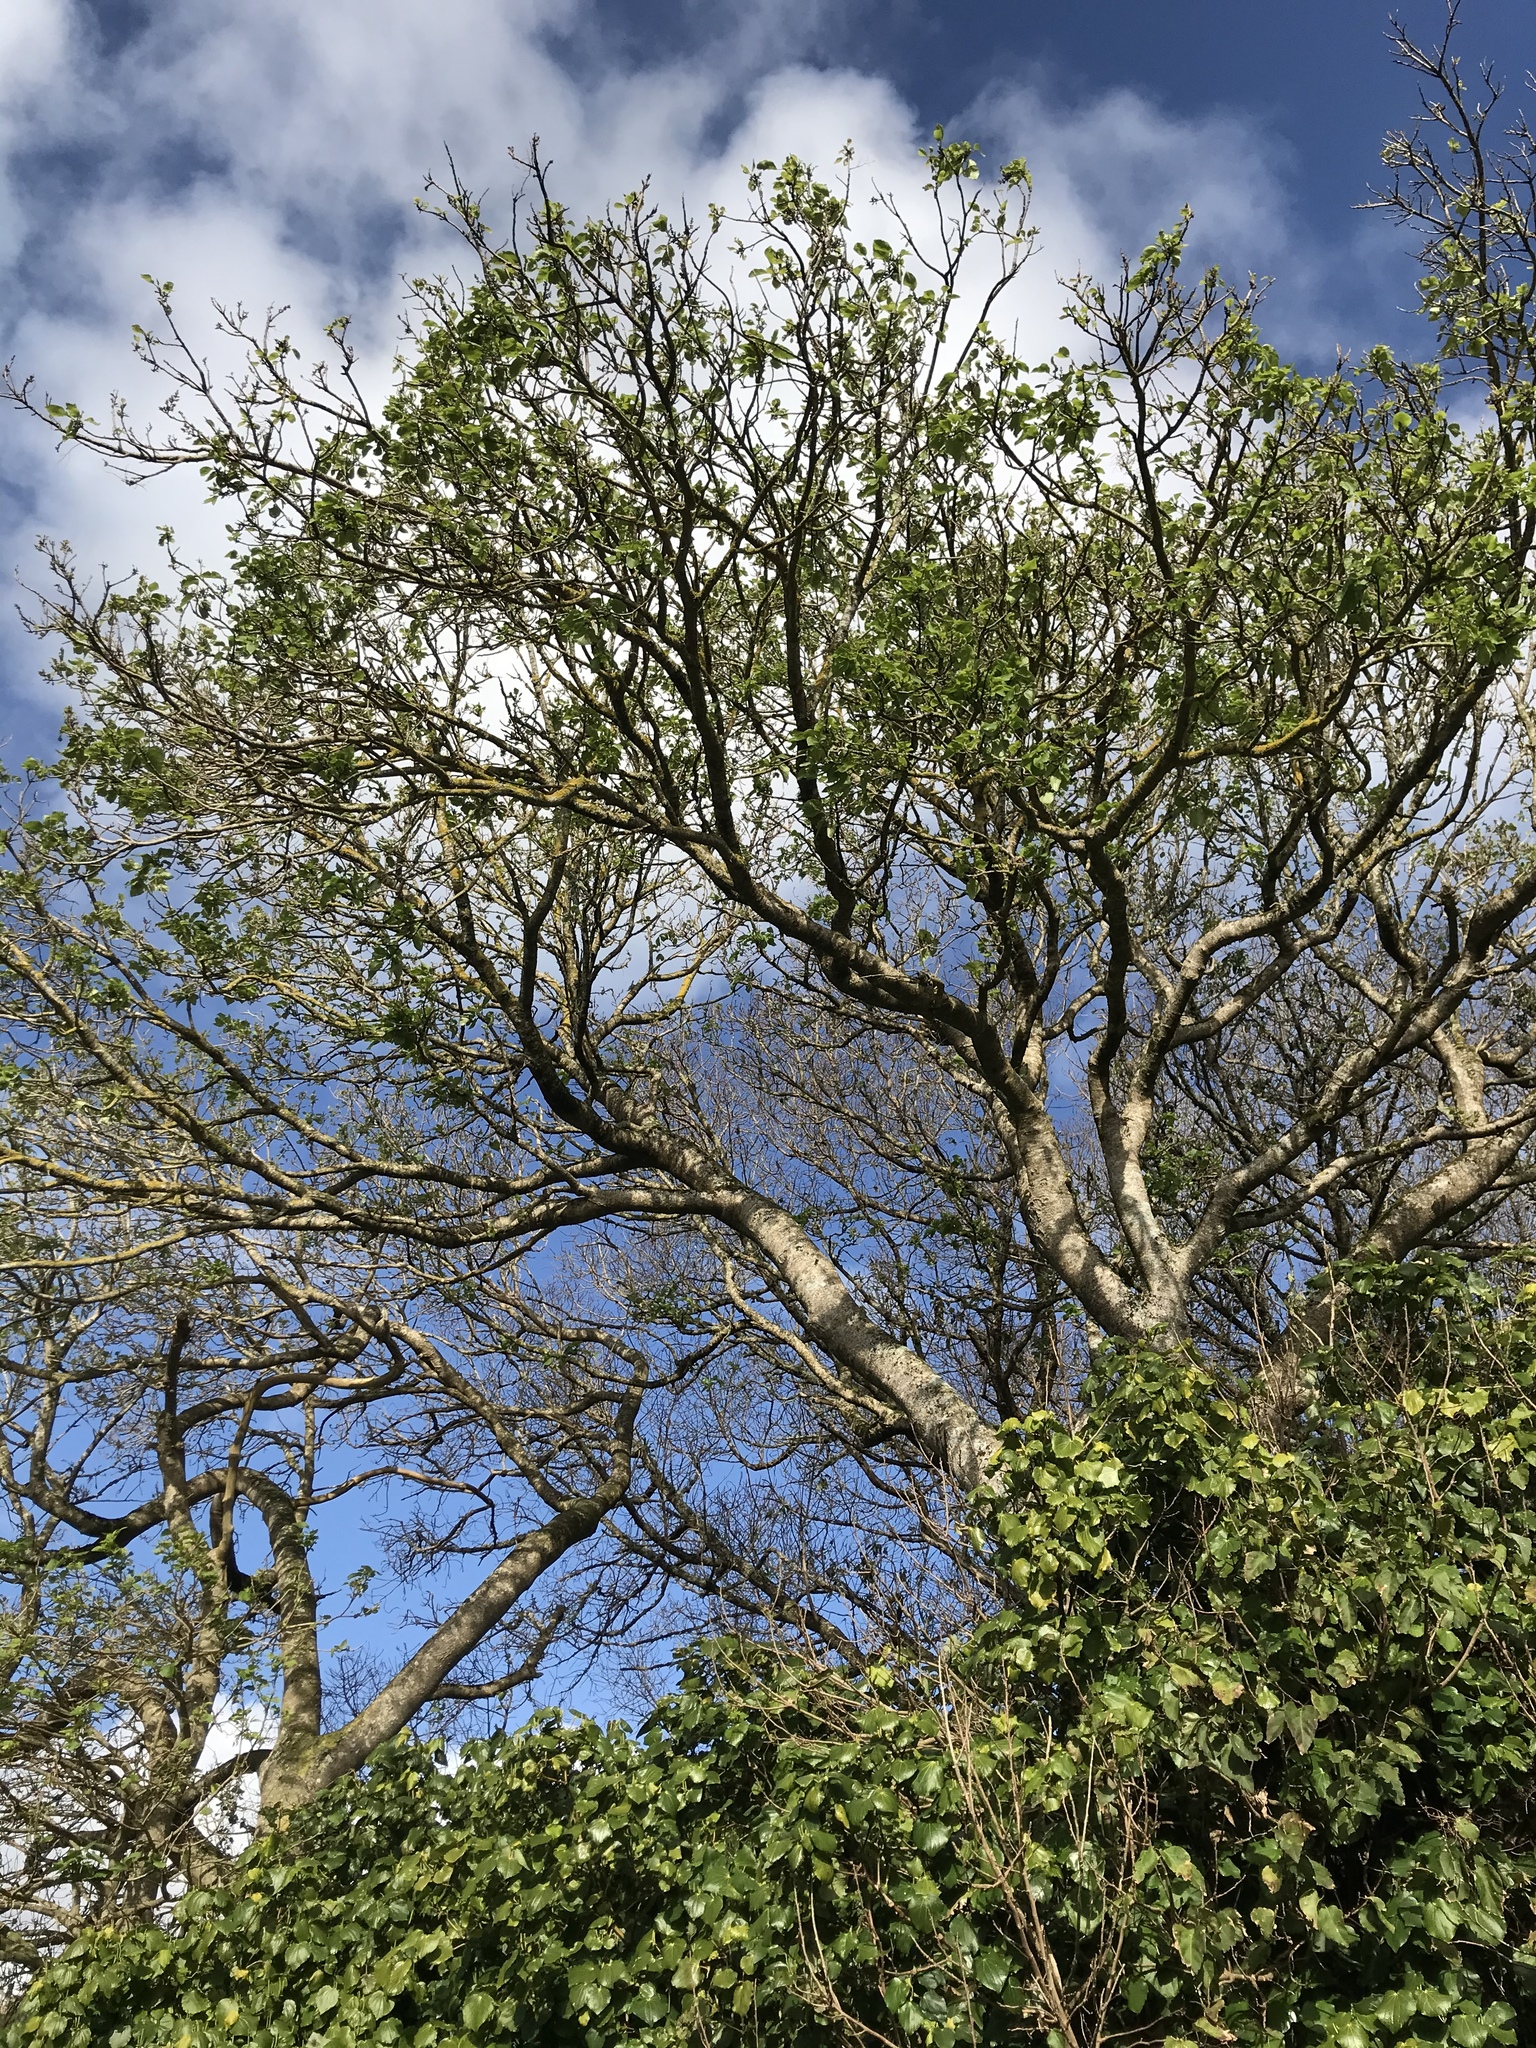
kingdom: Plantae
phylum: Tracheophyta
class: Magnoliopsida
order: Malvales
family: Malvaceae
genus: Plagianthus
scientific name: Plagianthus regius
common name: Manatu
